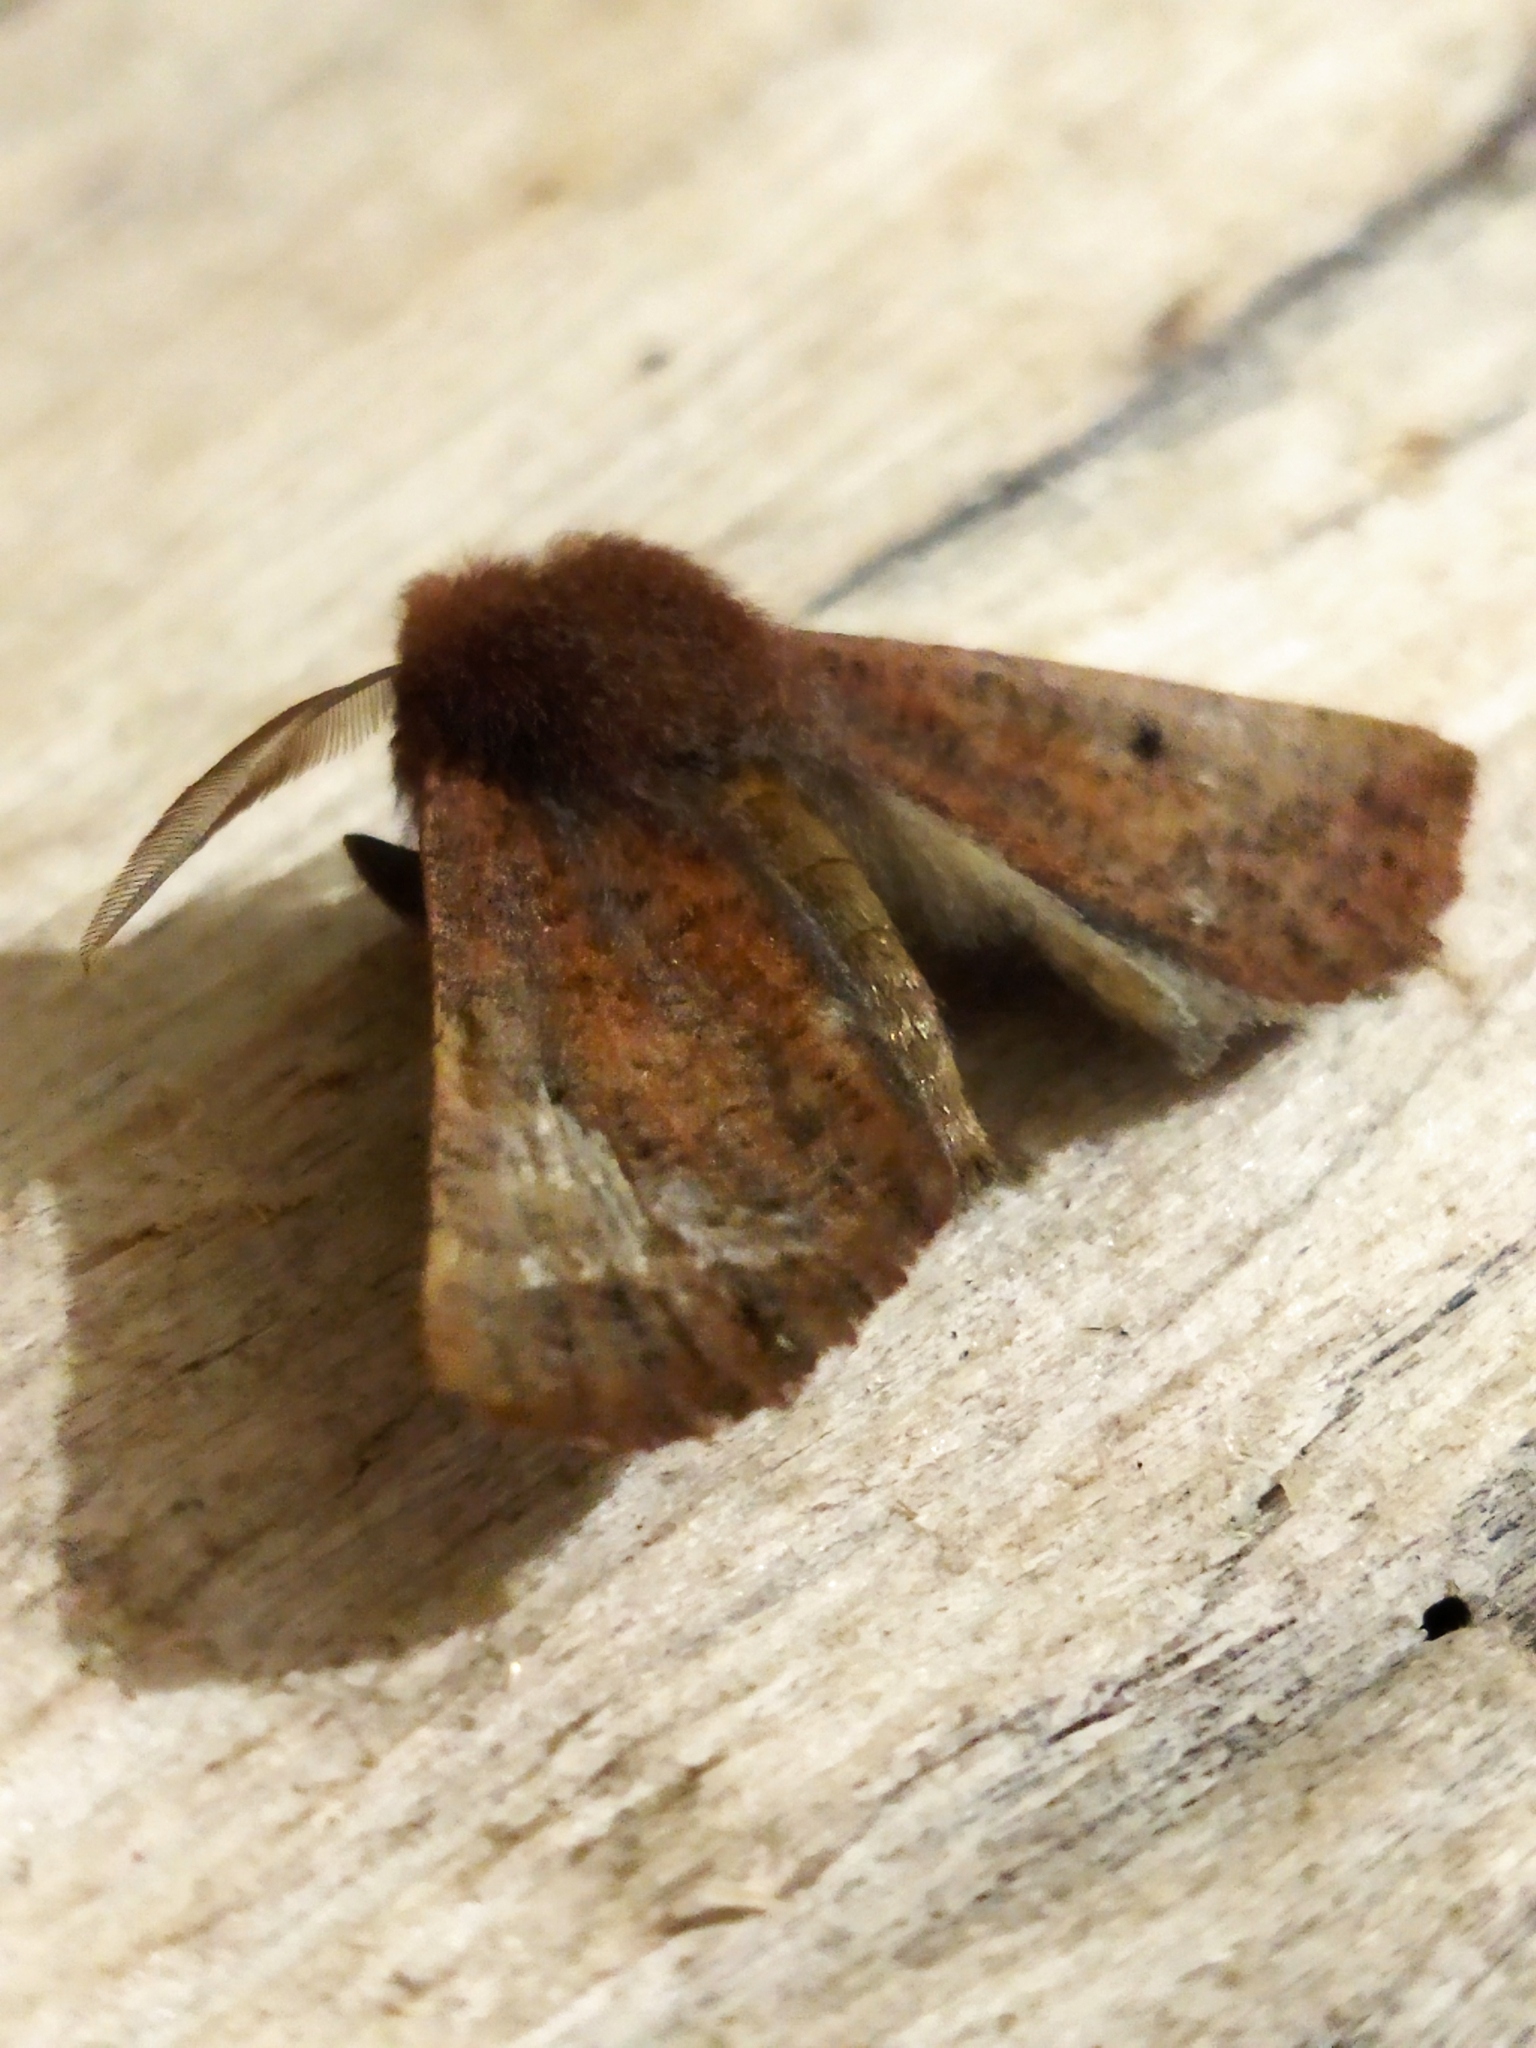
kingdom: Animalia
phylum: Arthropoda
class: Insecta
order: Lepidoptera
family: Geometridae
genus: Dasycorsa
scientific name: Dasycorsa modesta
